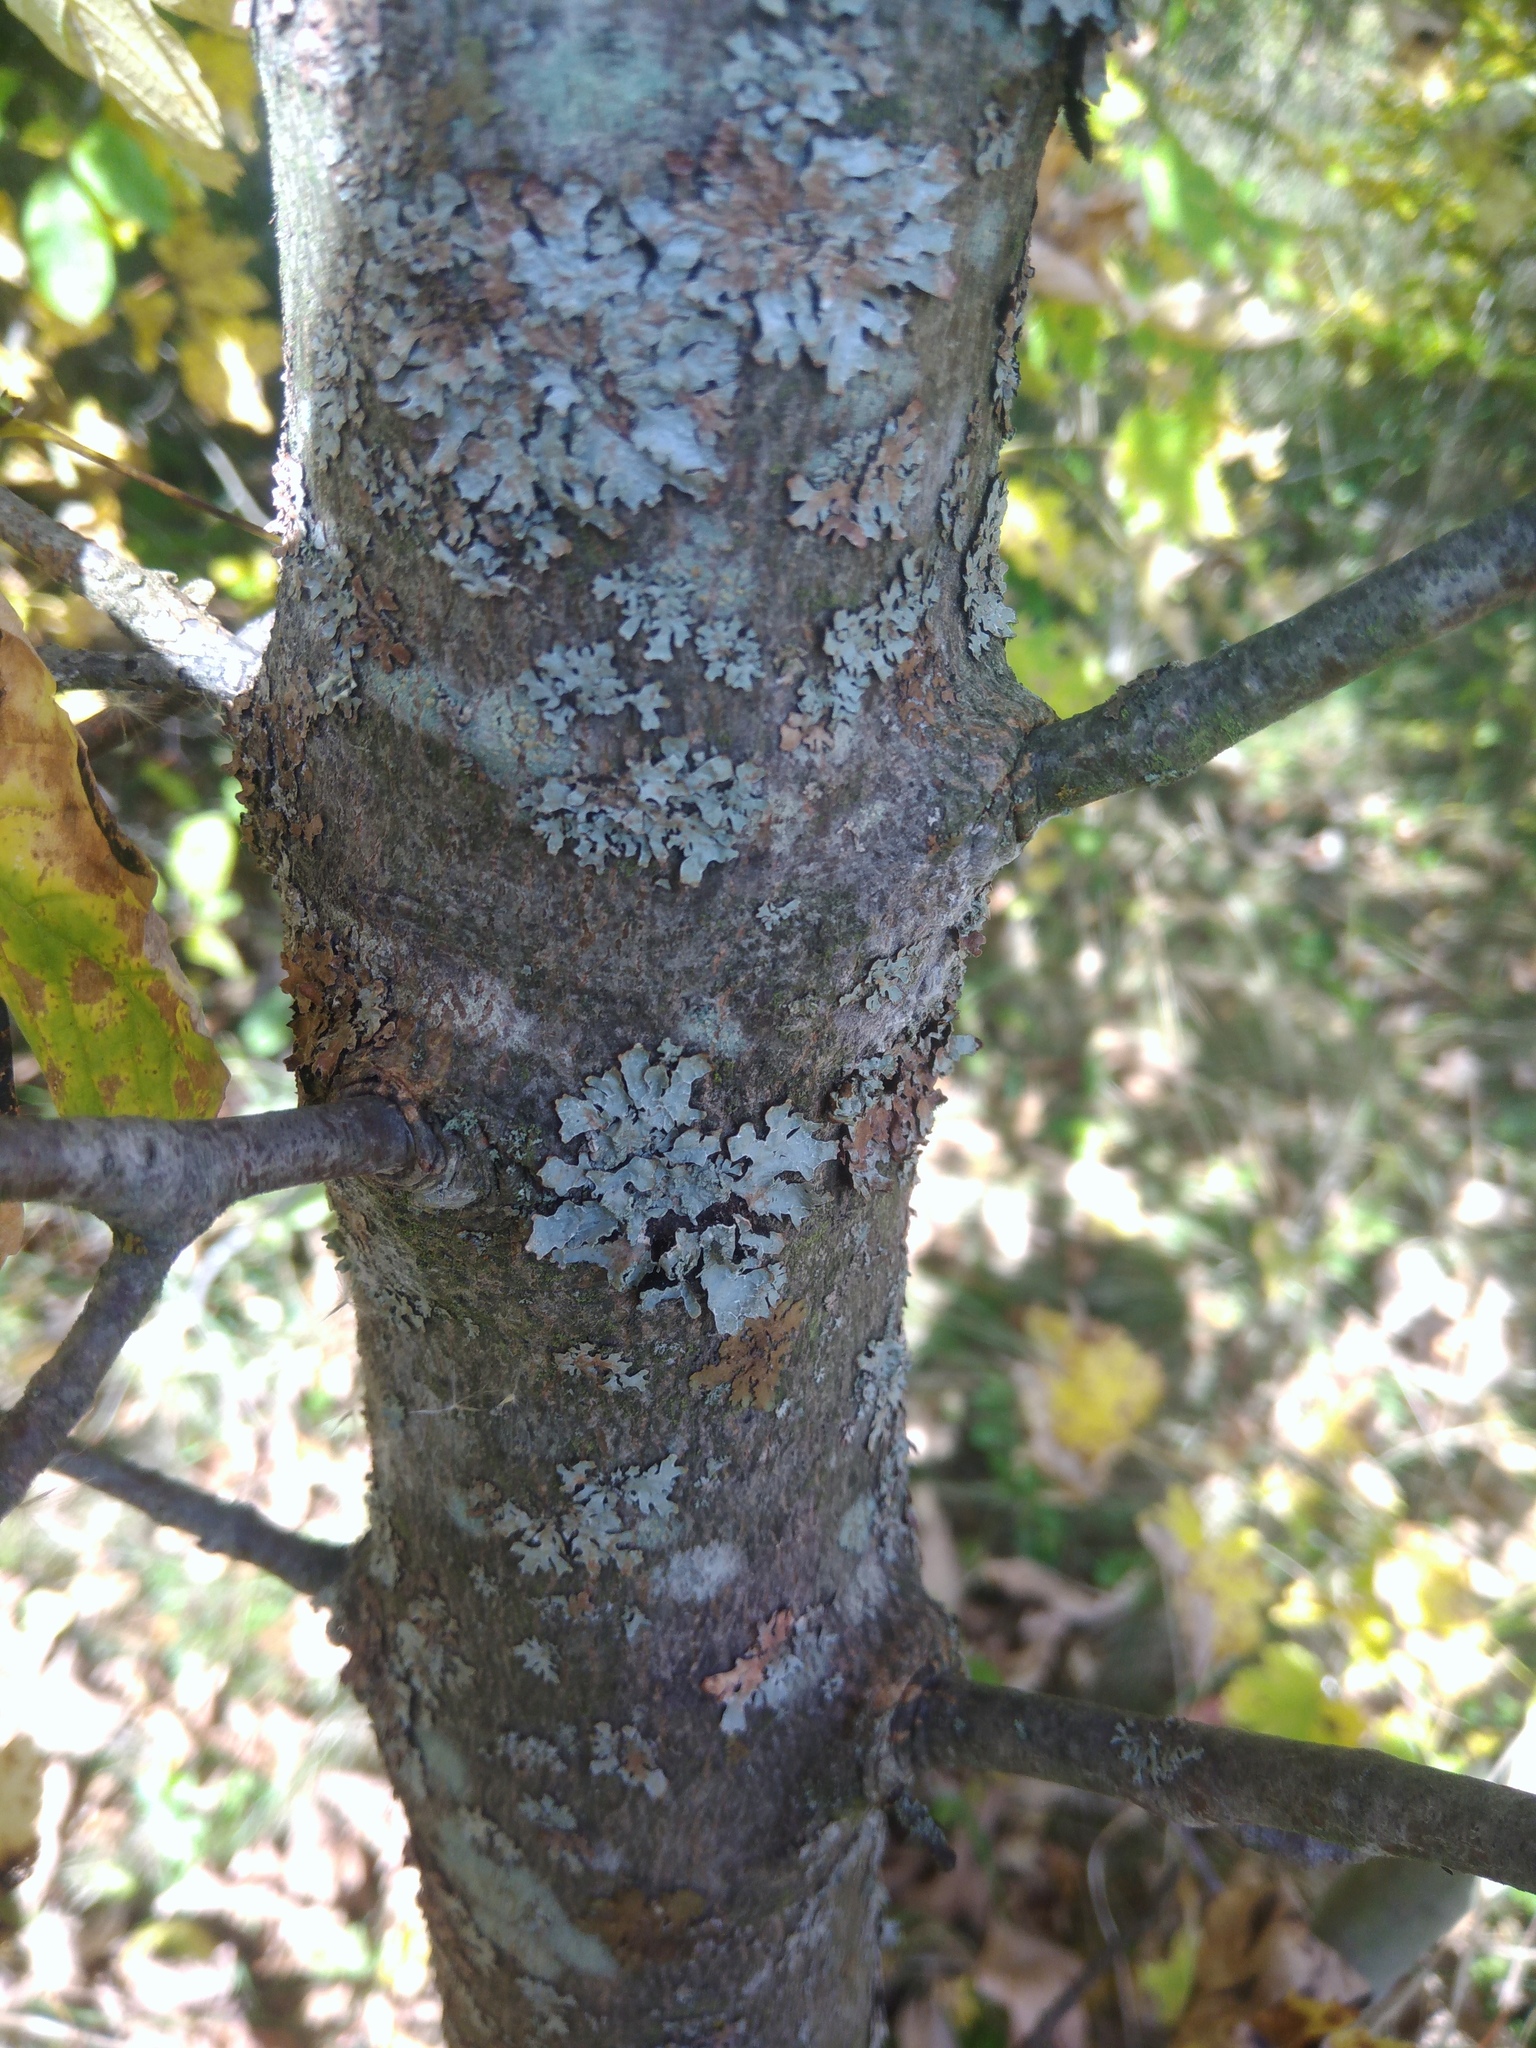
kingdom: Fungi
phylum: Ascomycota
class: Lecanoromycetes
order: Lecanorales
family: Parmeliaceae
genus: Parmelia
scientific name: Parmelia sulcata
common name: Netted shield lichen
